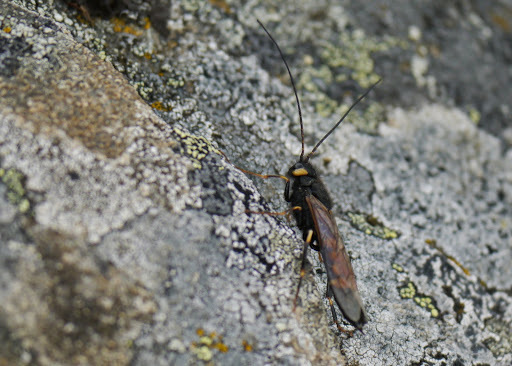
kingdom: Animalia
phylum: Arthropoda
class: Insecta
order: Hymenoptera
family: Siricidae
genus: Urocerus
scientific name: Urocerus flavicornis
